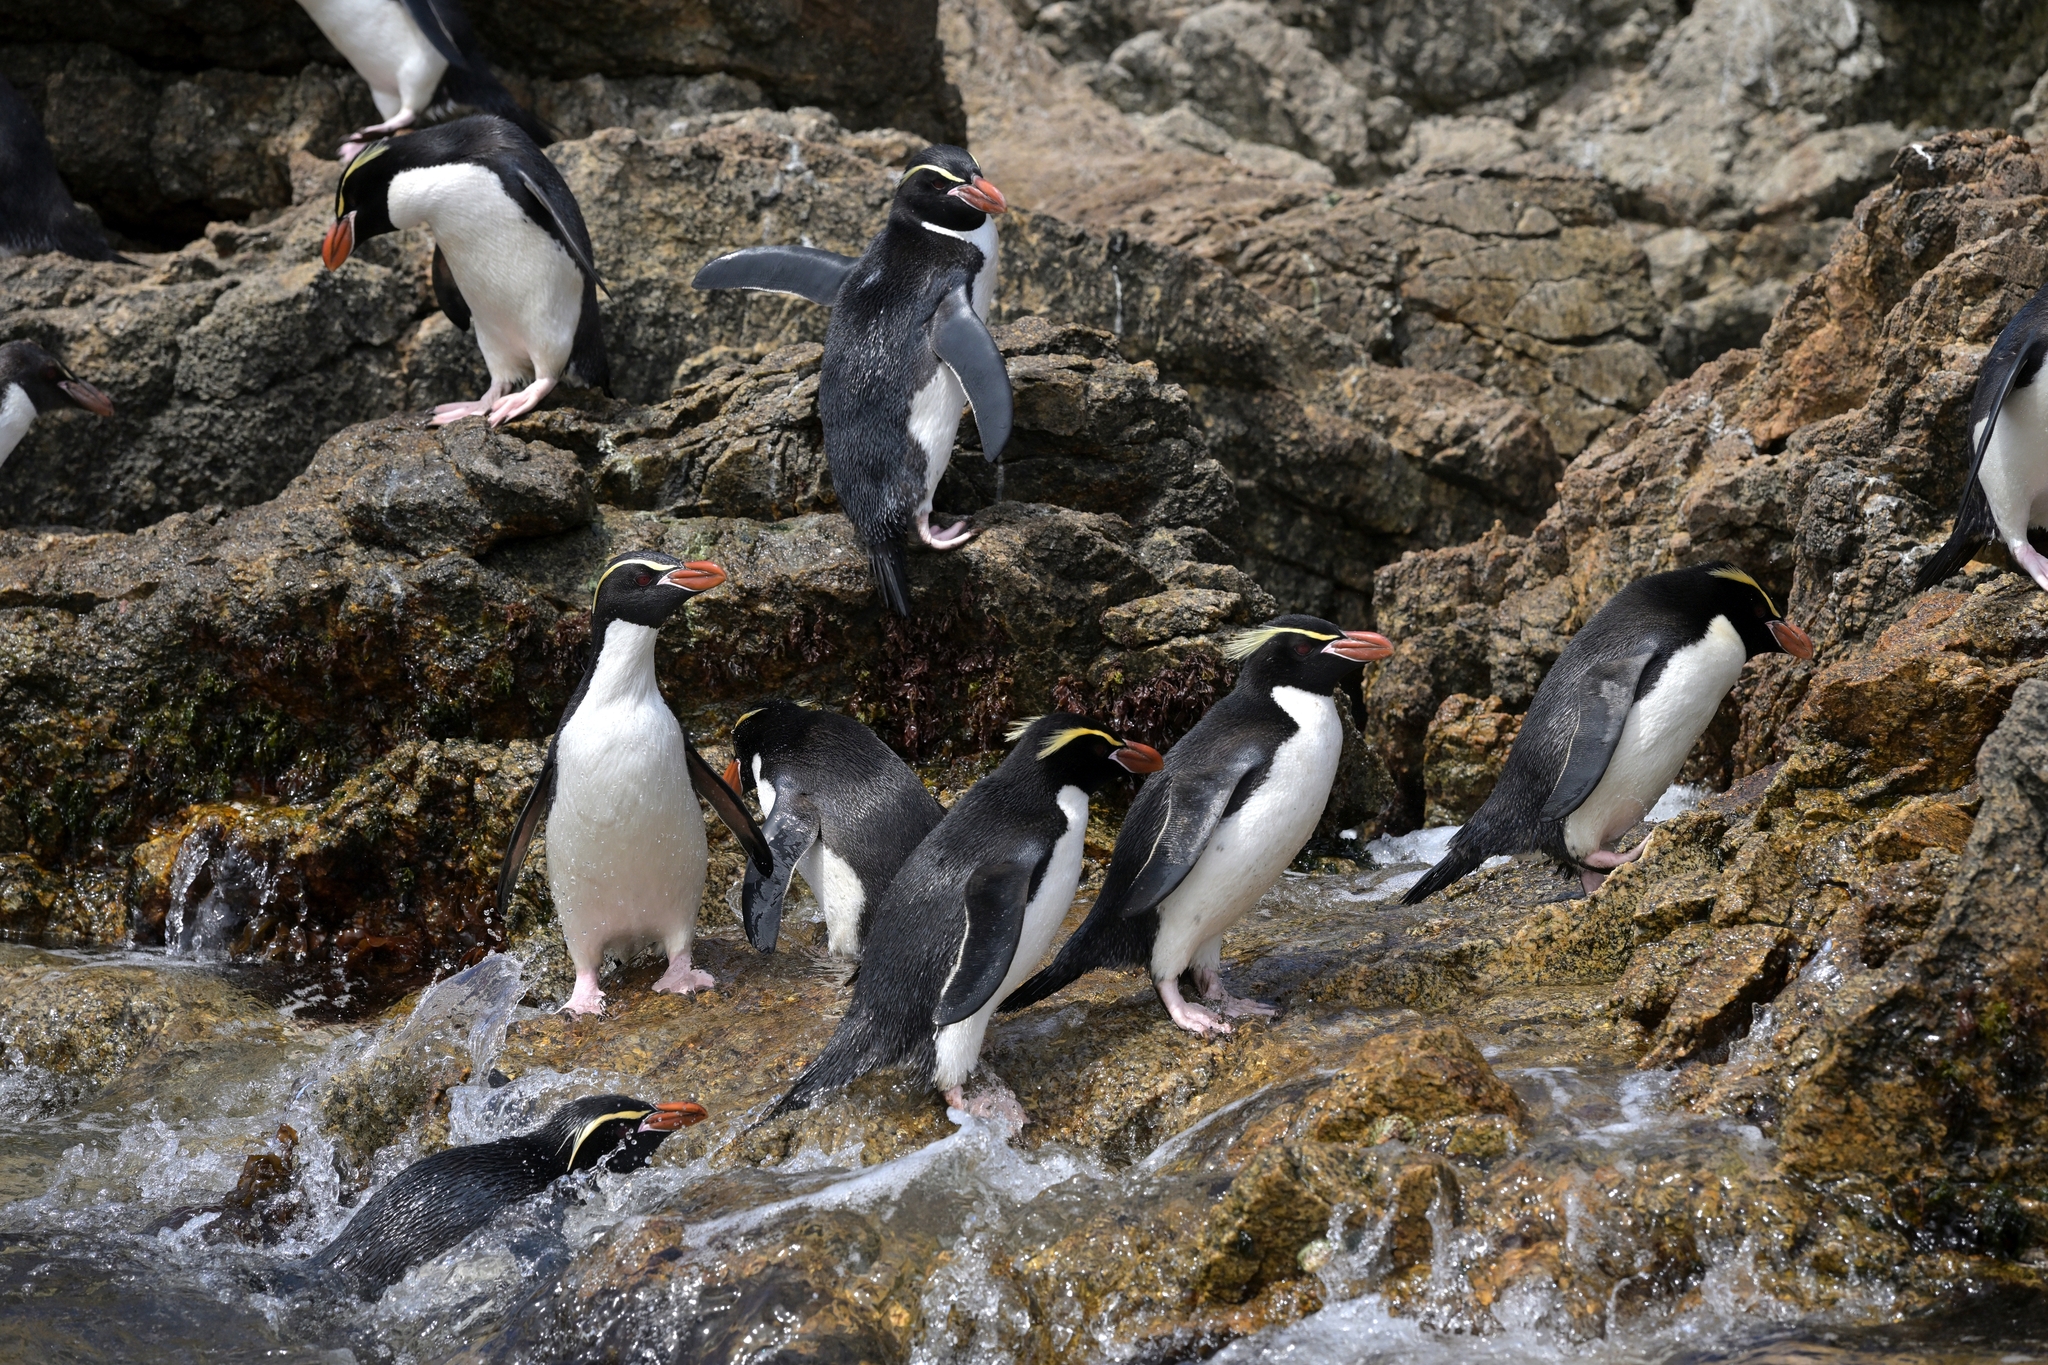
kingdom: Animalia
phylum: Chordata
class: Aves
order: Sphenisciformes
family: Spheniscidae
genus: Eudyptes
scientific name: Eudyptes robustus
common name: Snares penguin
